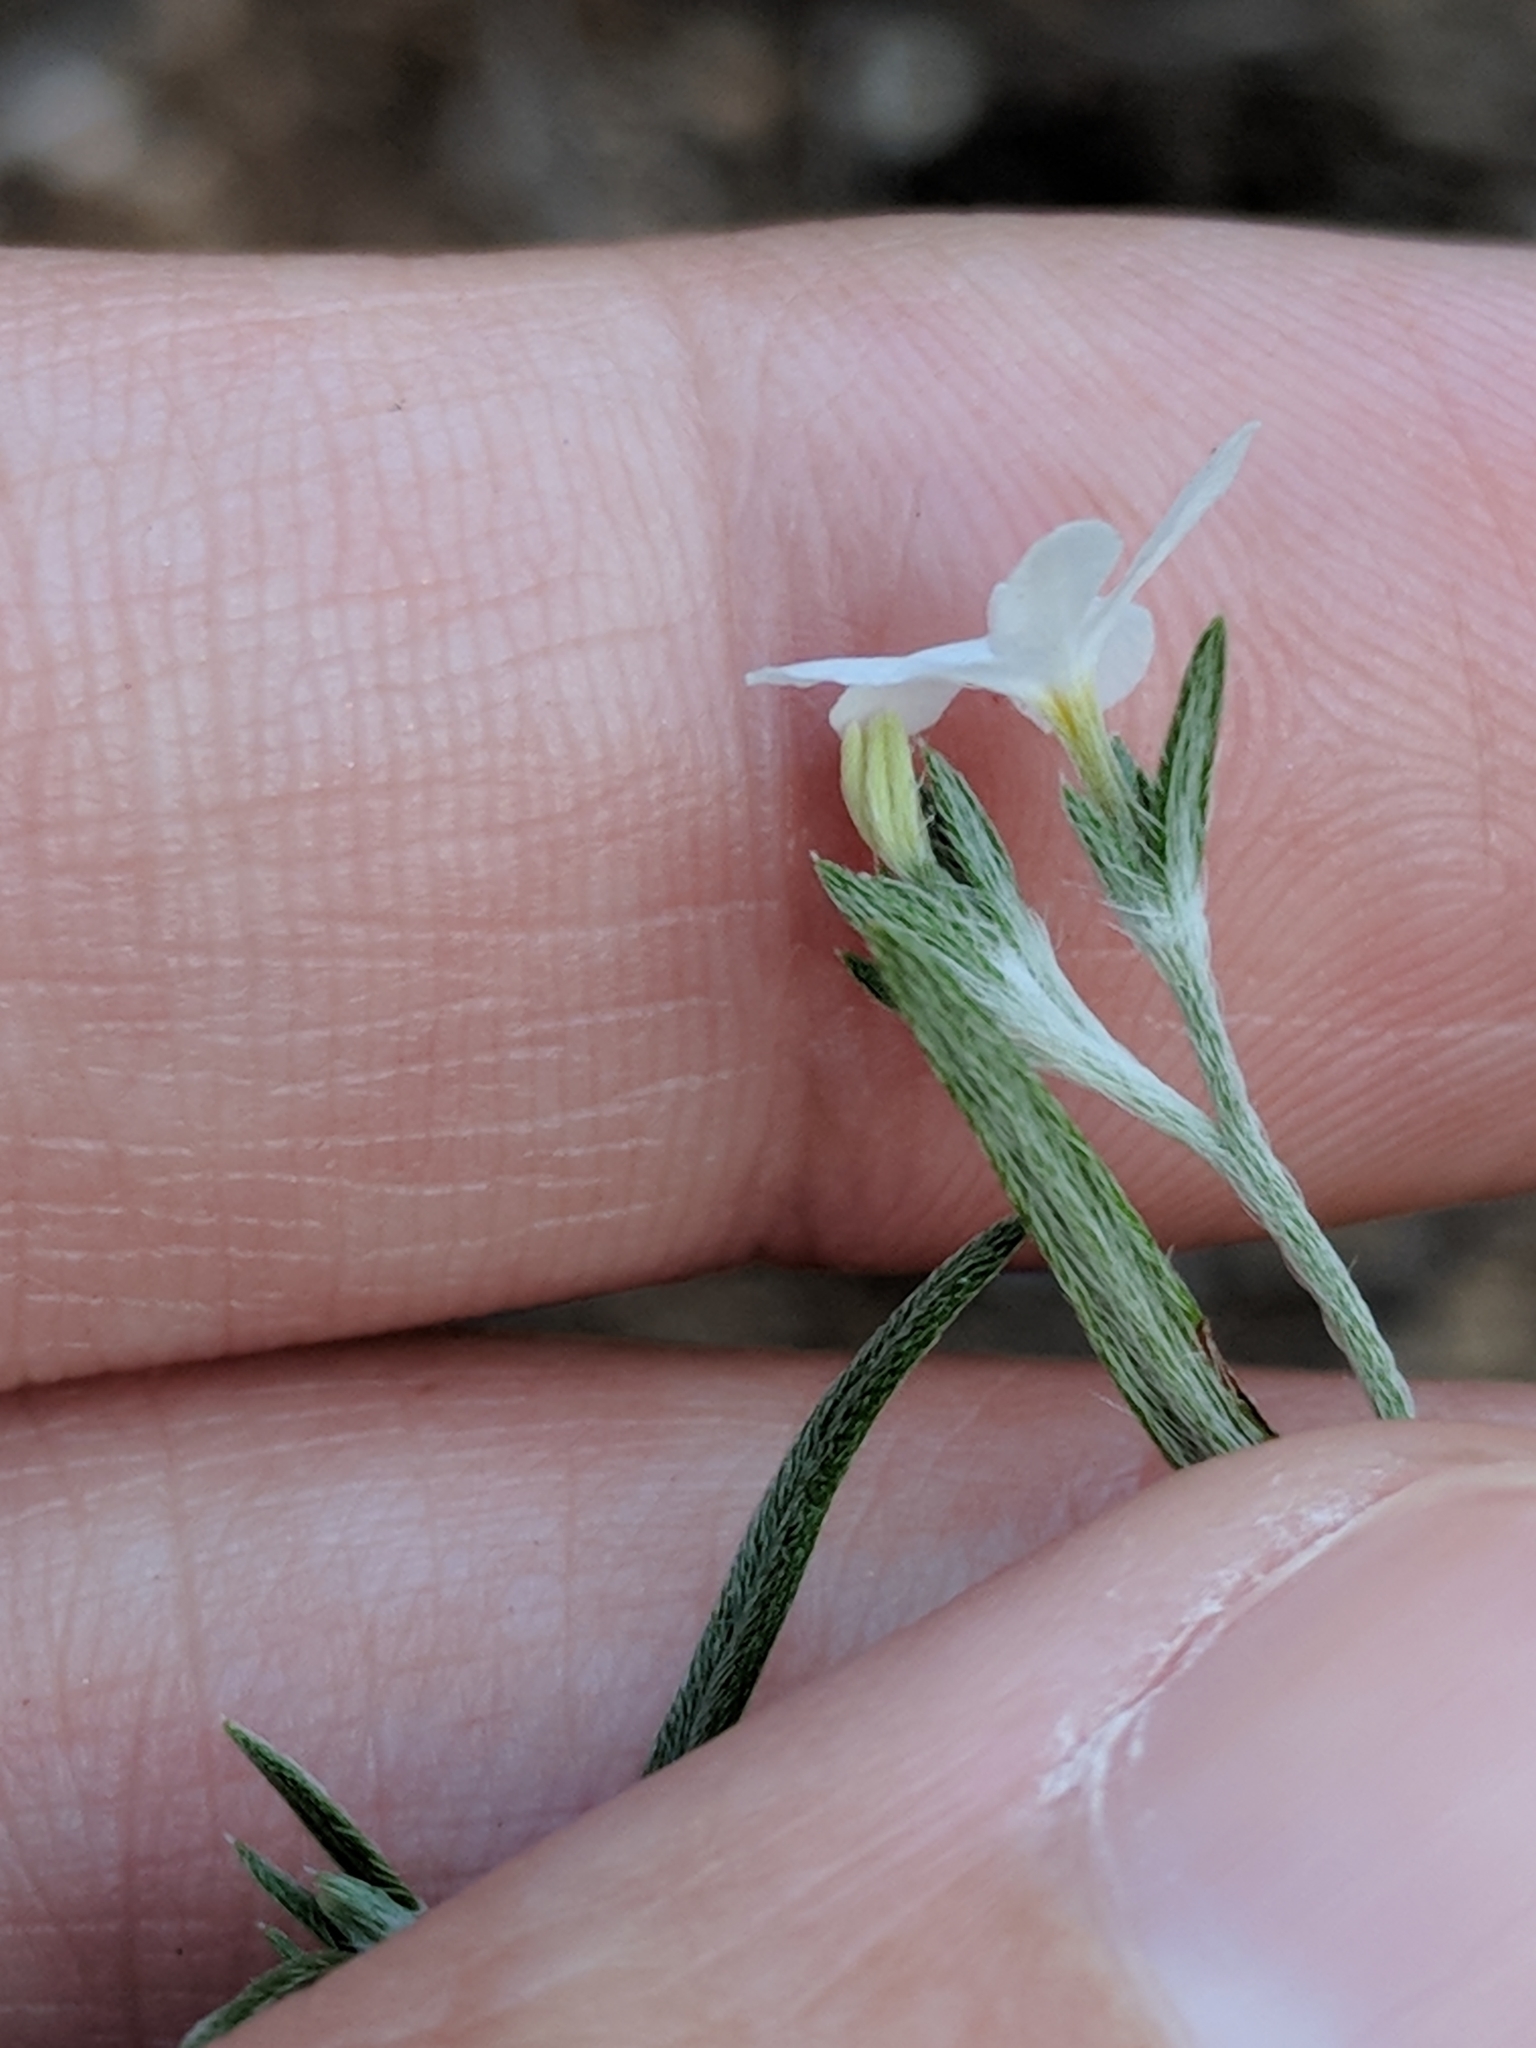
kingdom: Plantae
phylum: Tracheophyta
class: Magnoliopsida
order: Boraginales
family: Heliotropiaceae
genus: Euploca
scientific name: Euploca tenella
